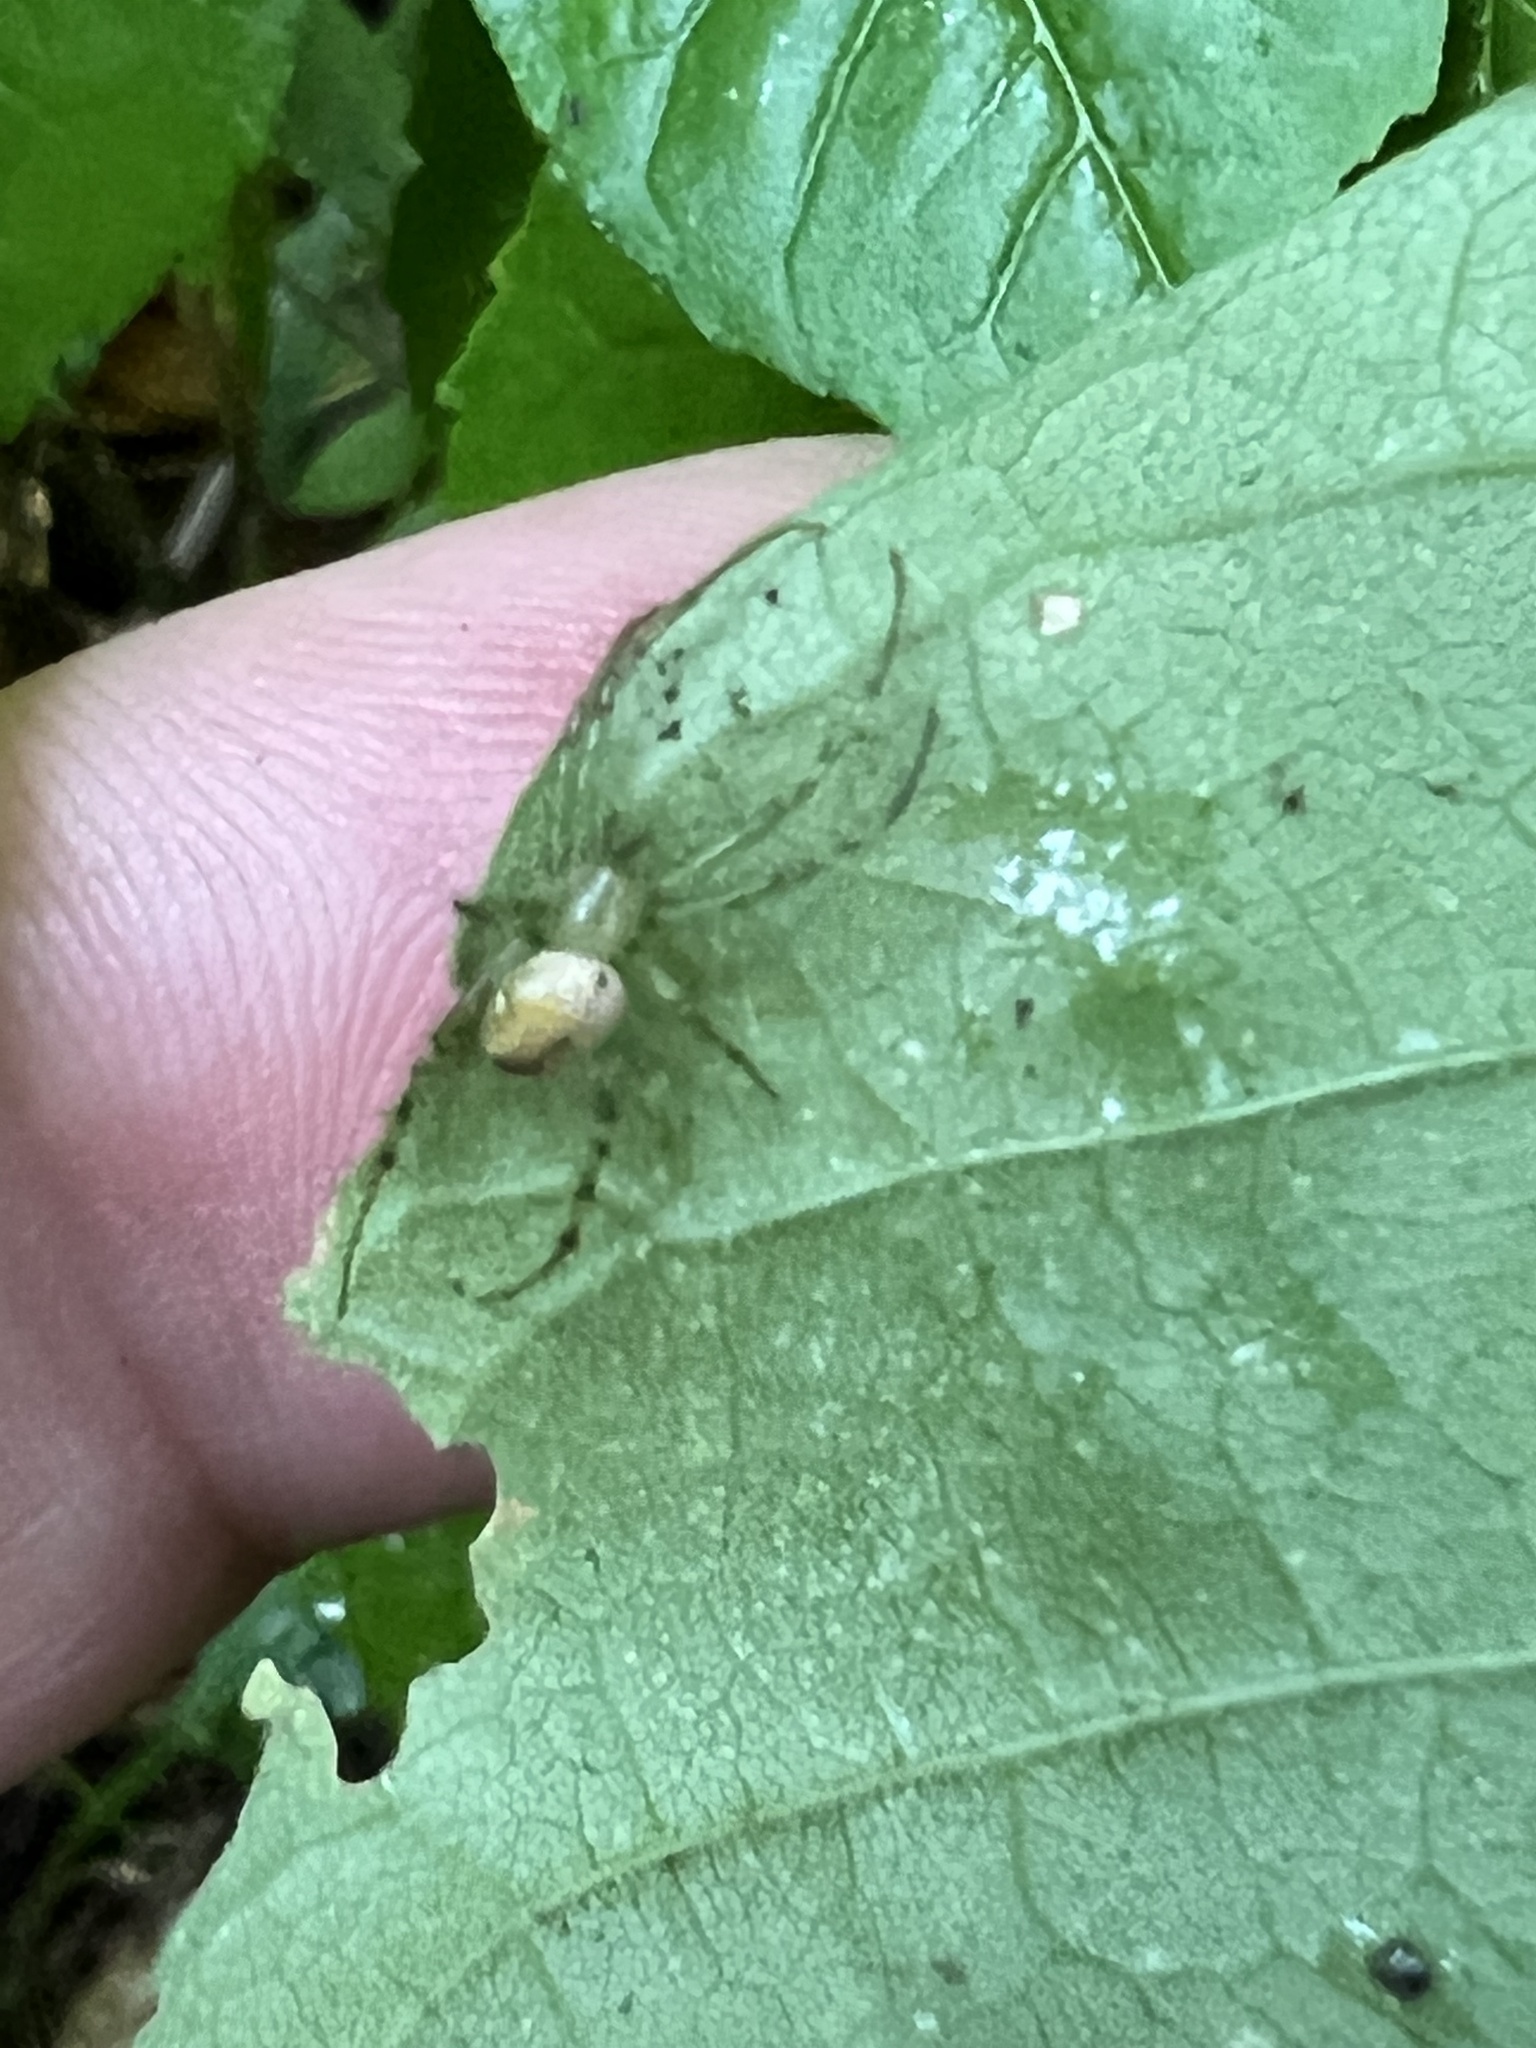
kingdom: Animalia
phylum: Arthropoda
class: Arachnida
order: Araneae
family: Araneidae
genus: Mangora
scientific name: Mangora maculata
